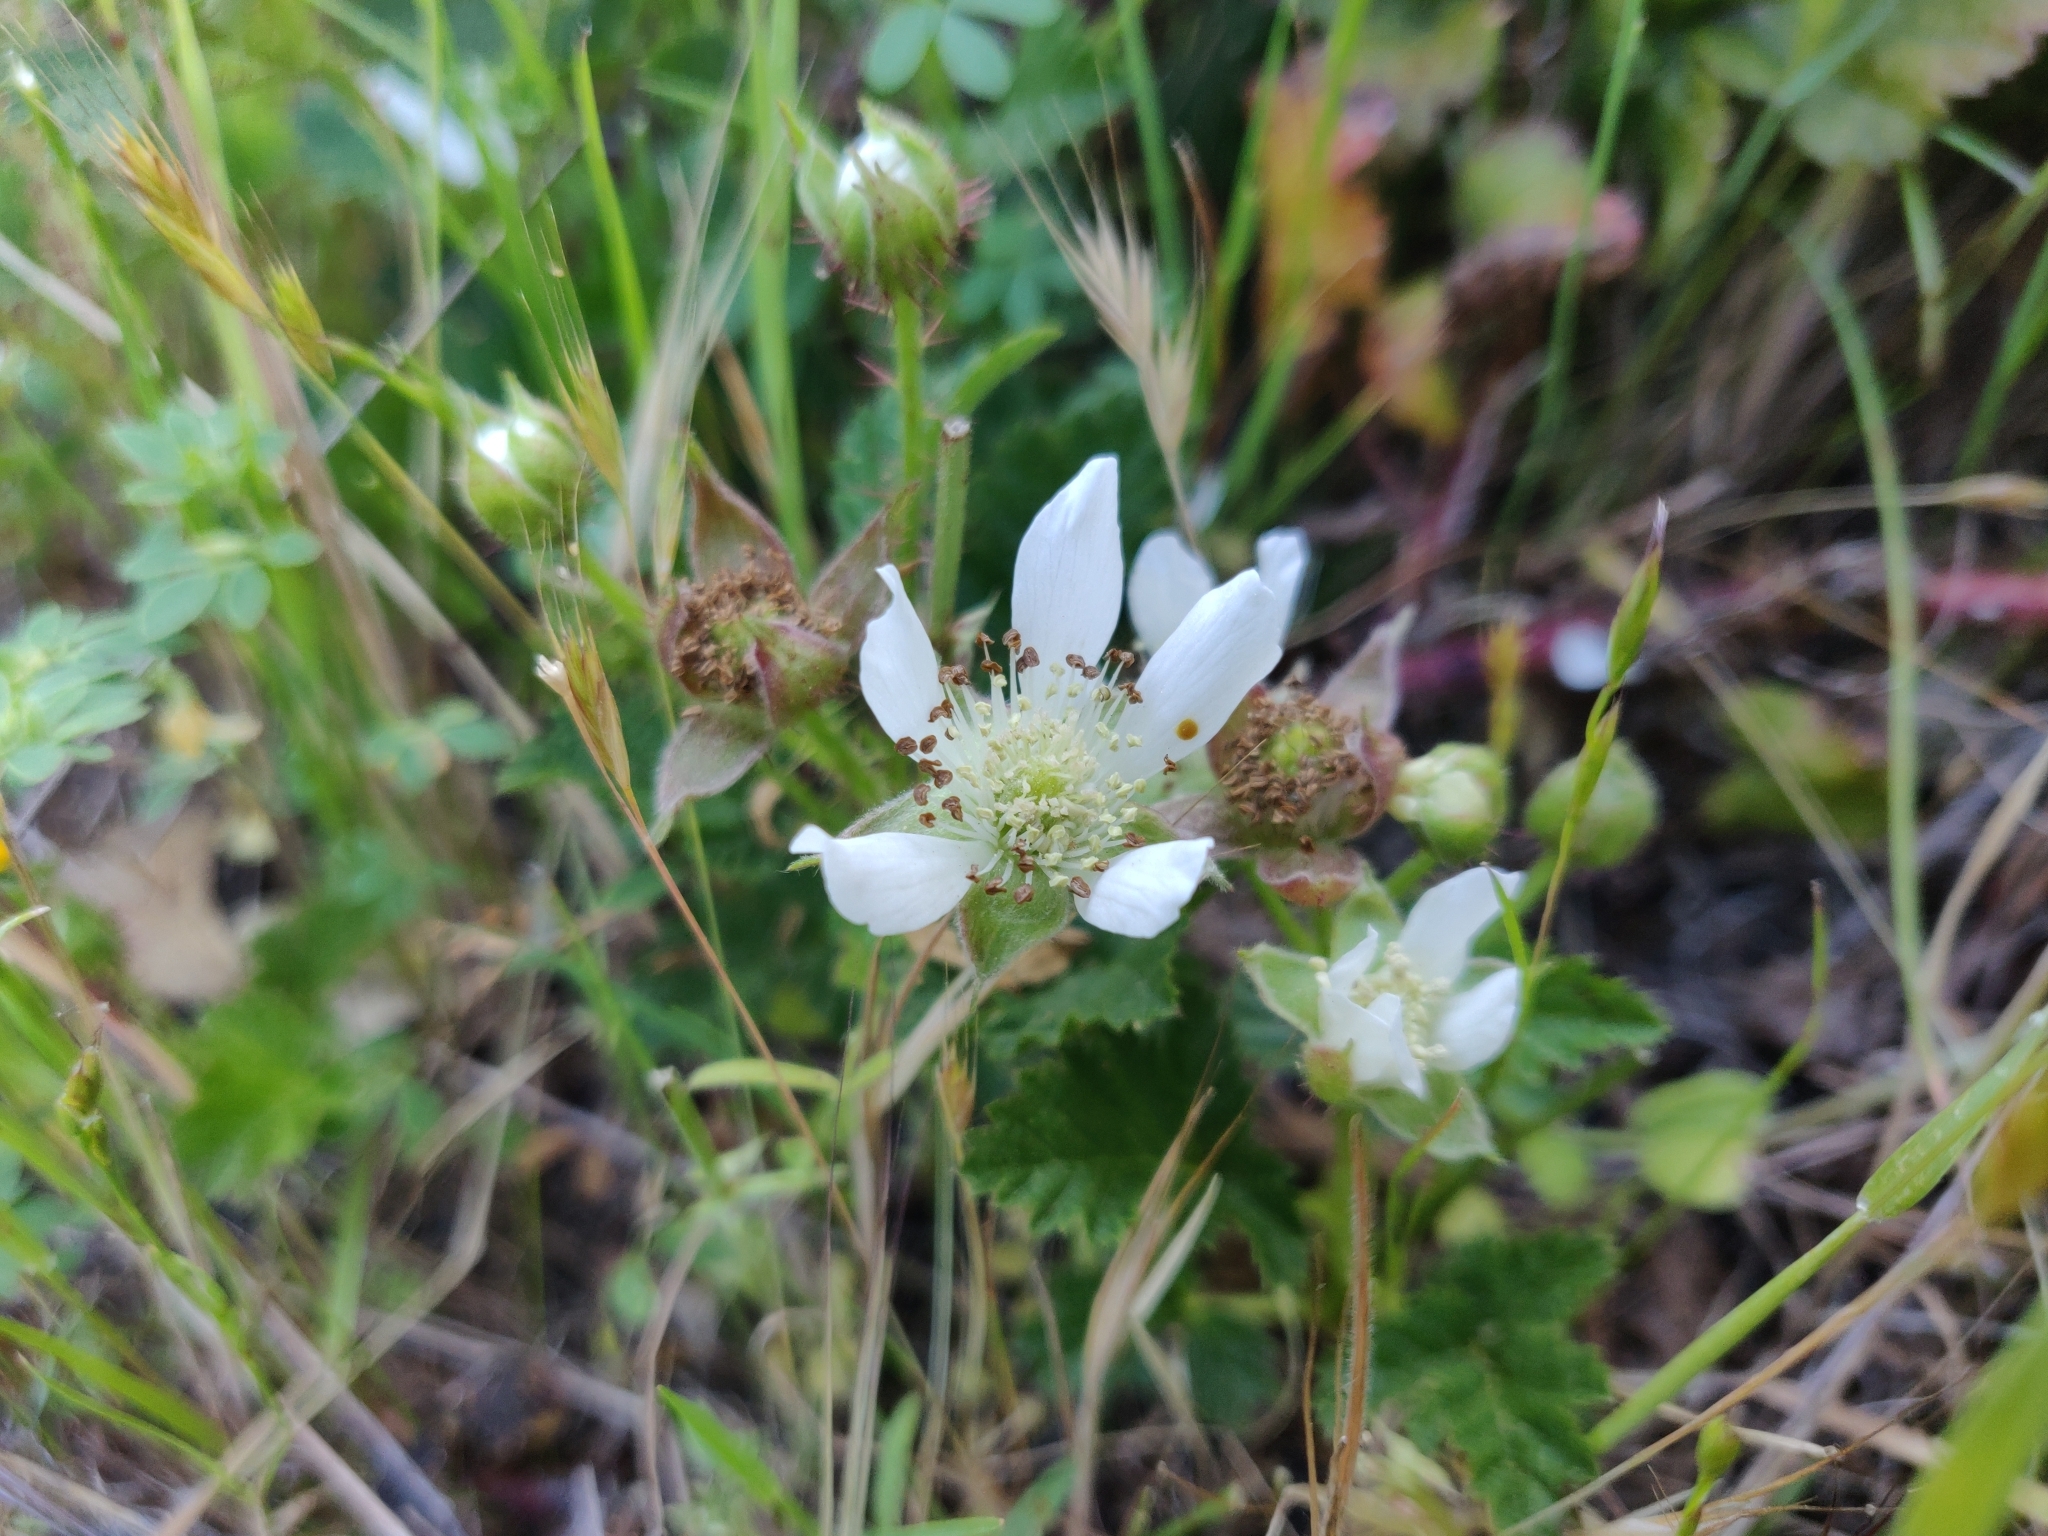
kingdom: Plantae
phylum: Tracheophyta
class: Magnoliopsida
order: Rosales
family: Rosaceae
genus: Rubus
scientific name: Rubus ursinus
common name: Pacific blackberry
